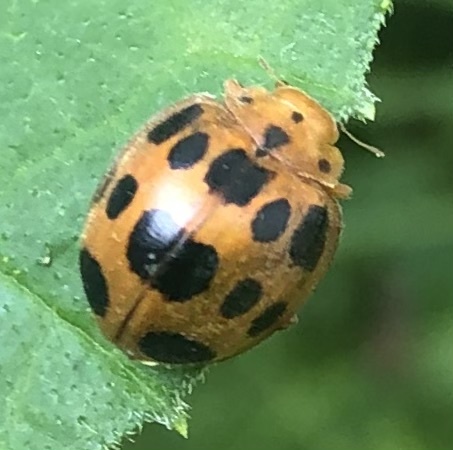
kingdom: Animalia
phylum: Arthropoda
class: Insecta
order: Coleoptera
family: Coccinellidae
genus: Epilachna
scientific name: Epilachna borealis
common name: Squash beetle
